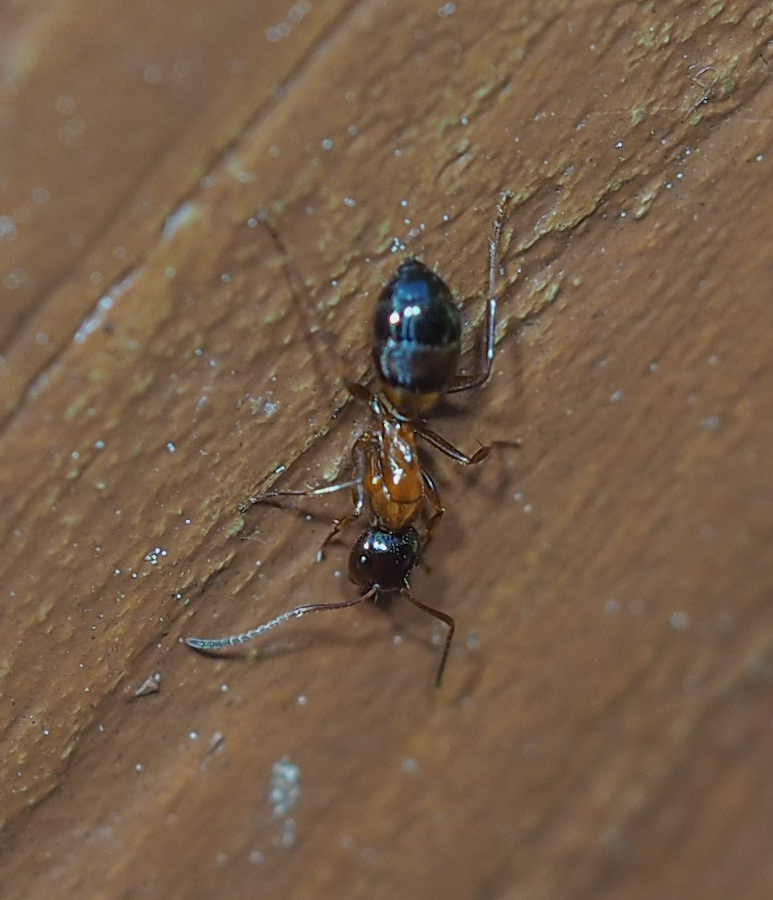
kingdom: Animalia
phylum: Arthropoda
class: Insecta
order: Hymenoptera
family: Formicidae
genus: Camponotus
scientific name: Camponotus nearcticus
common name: Smaller carpenter ant
